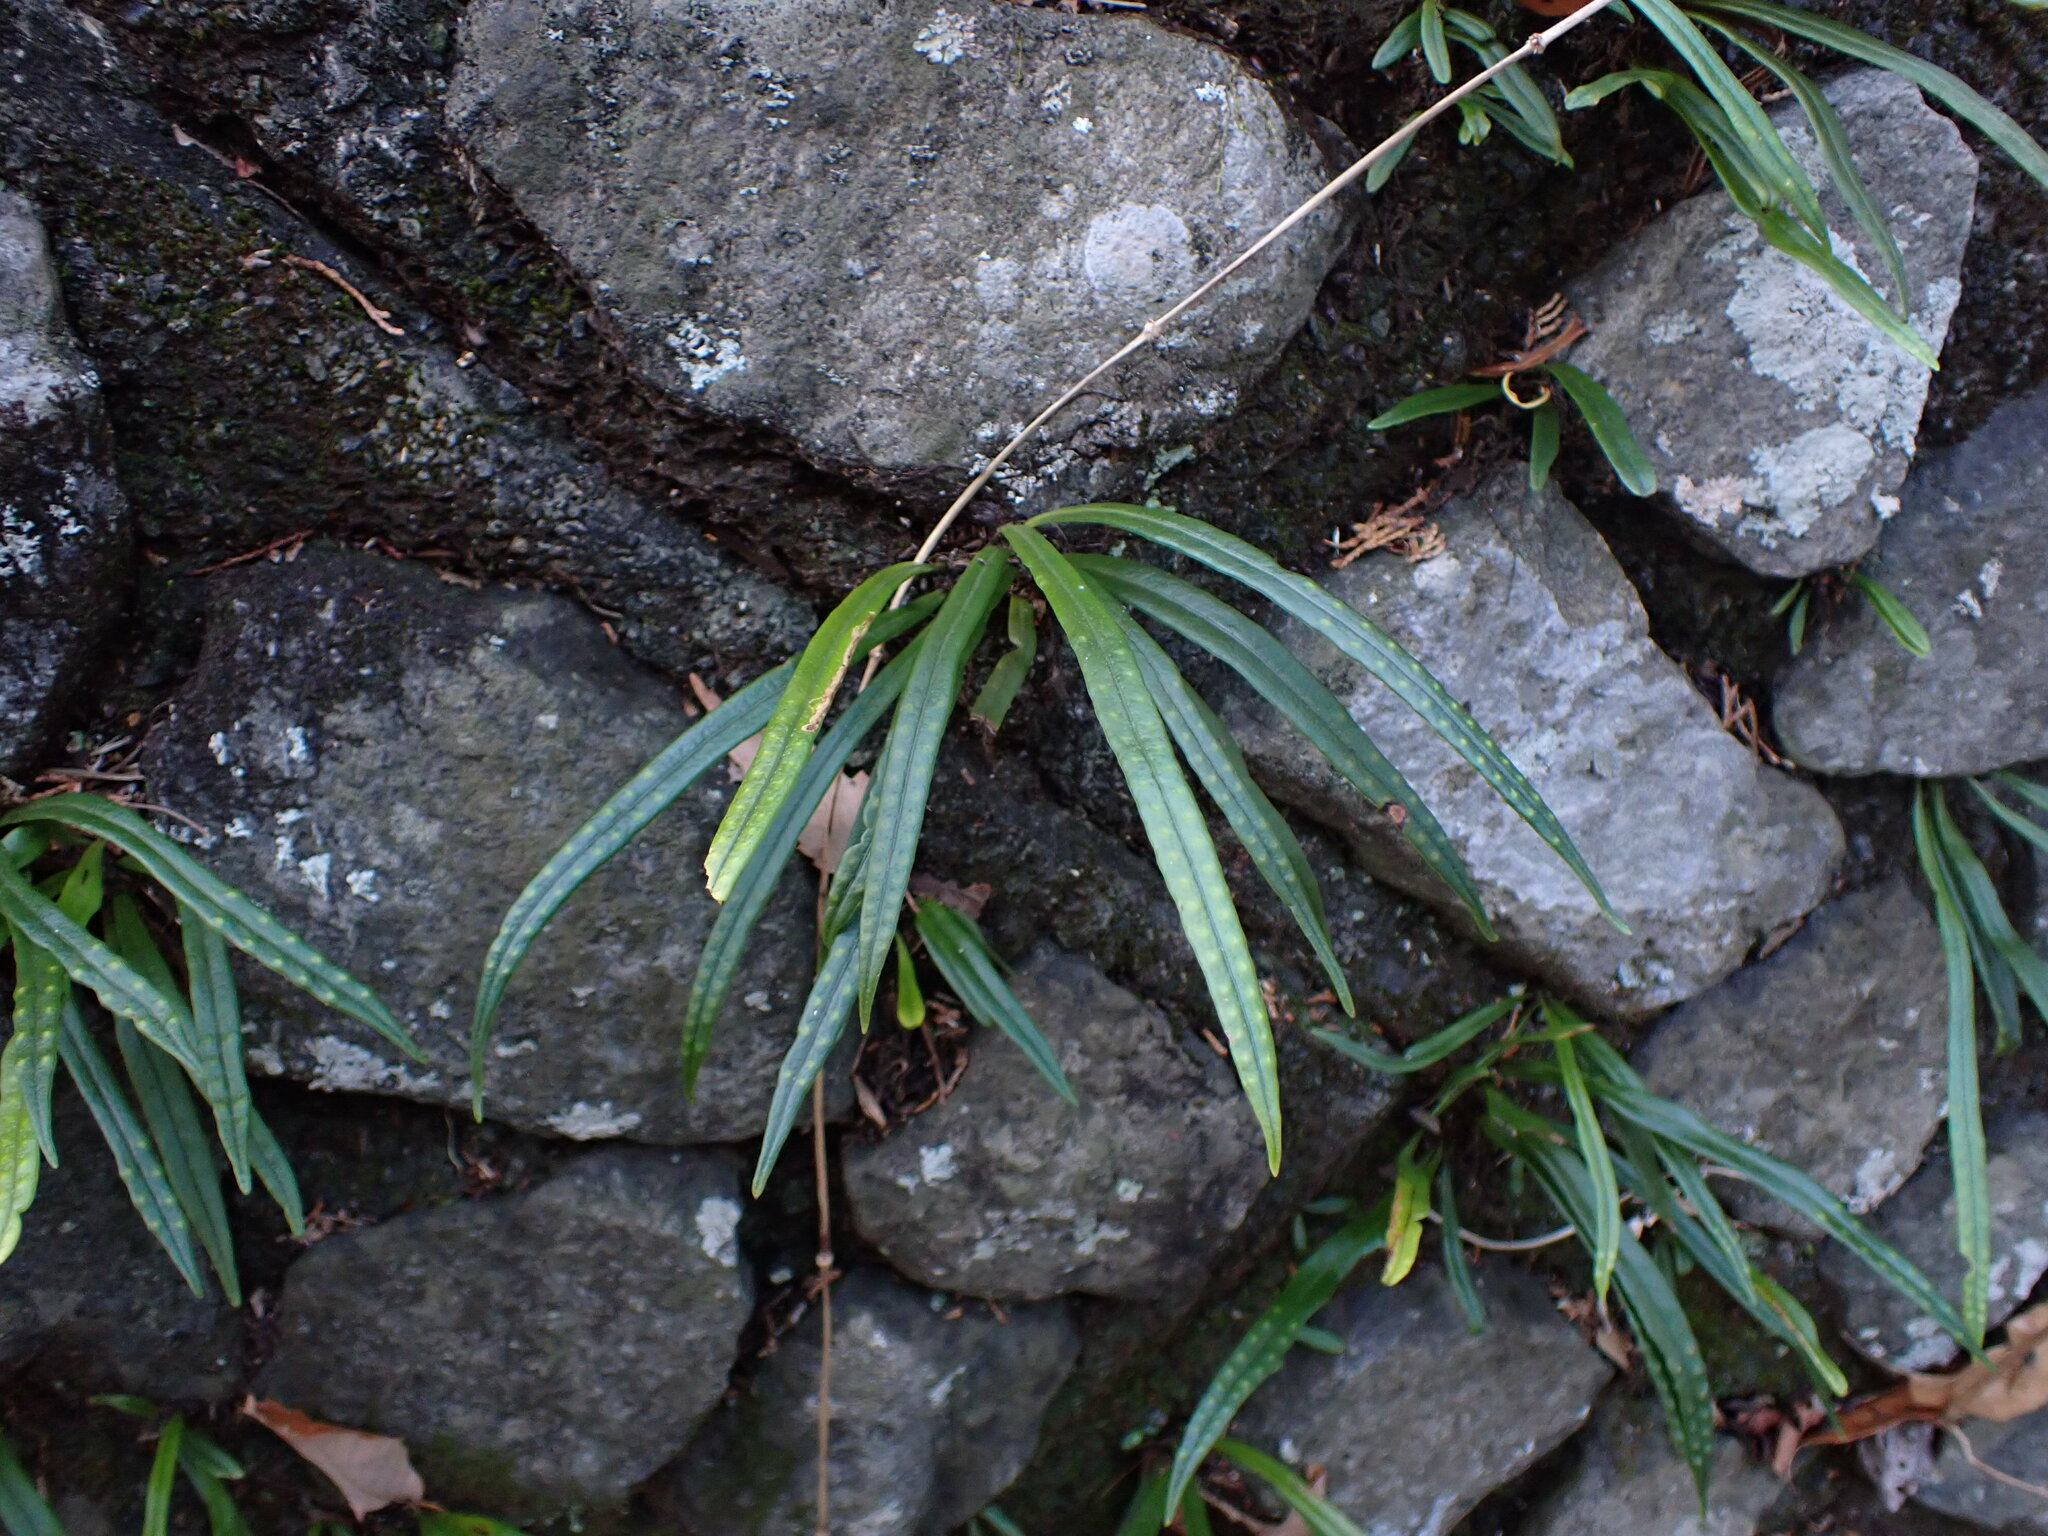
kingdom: Plantae
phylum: Tracheophyta
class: Polypodiopsida
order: Polypodiales
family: Polypodiaceae
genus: Lepisorus
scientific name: Lepisorus thunbergianus
